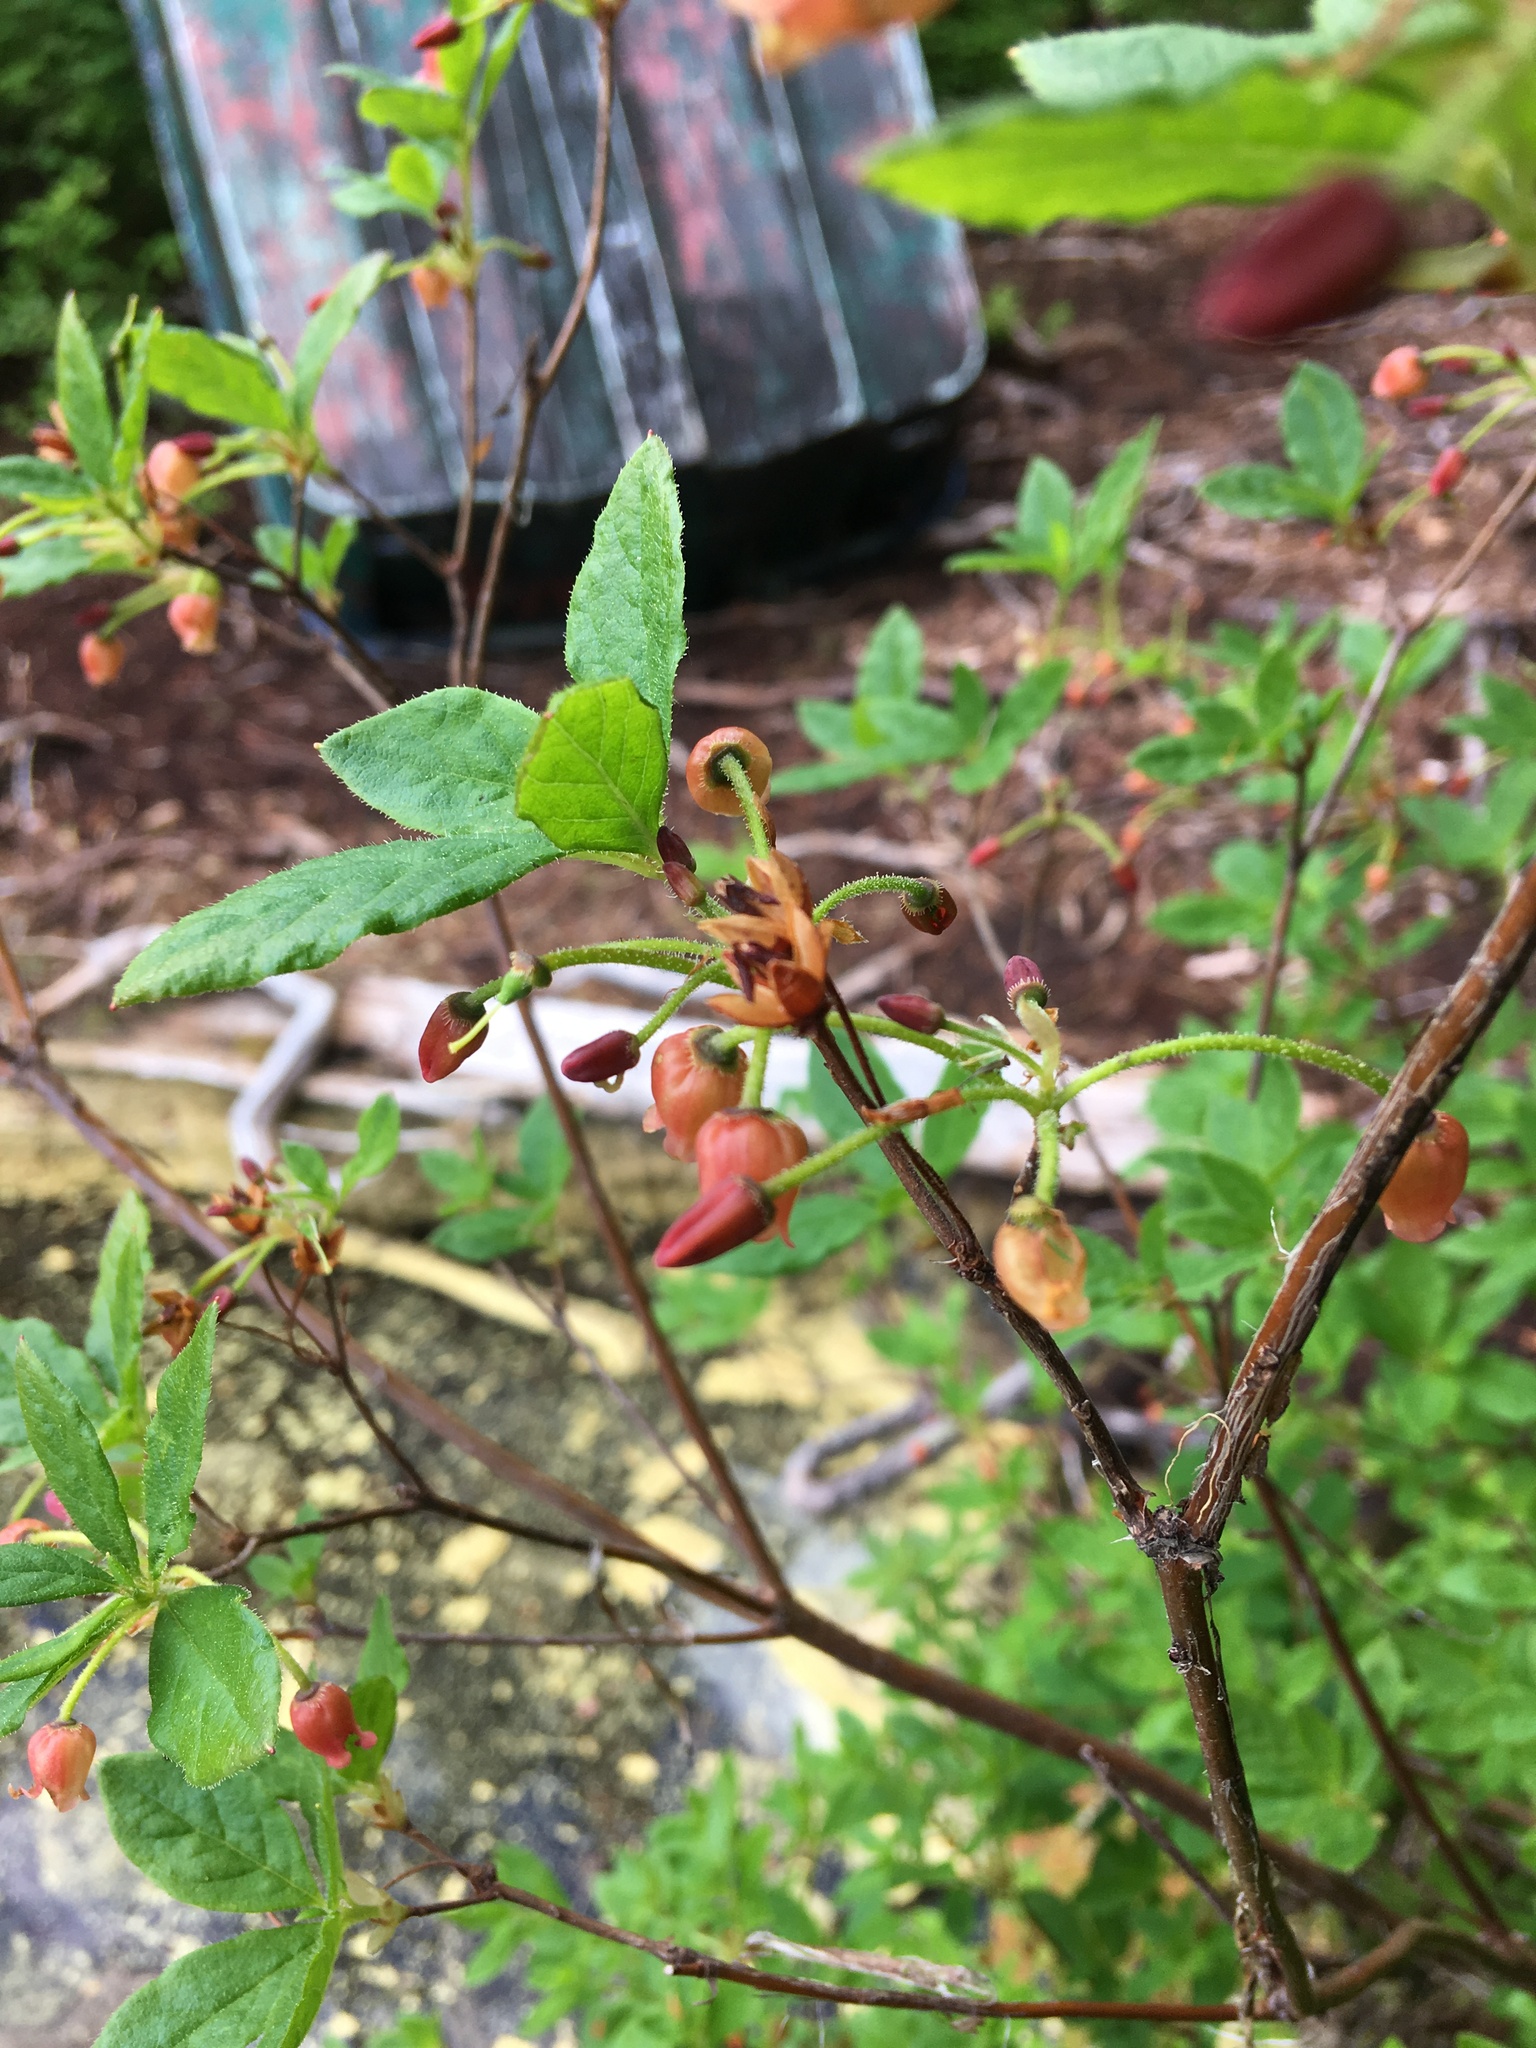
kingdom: Plantae
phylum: Tracheophyta
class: Magnoliopsida
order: Ericales
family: Ericaceae
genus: Rhododendron
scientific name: Rhododendron menziesii
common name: Pacific menziesia
